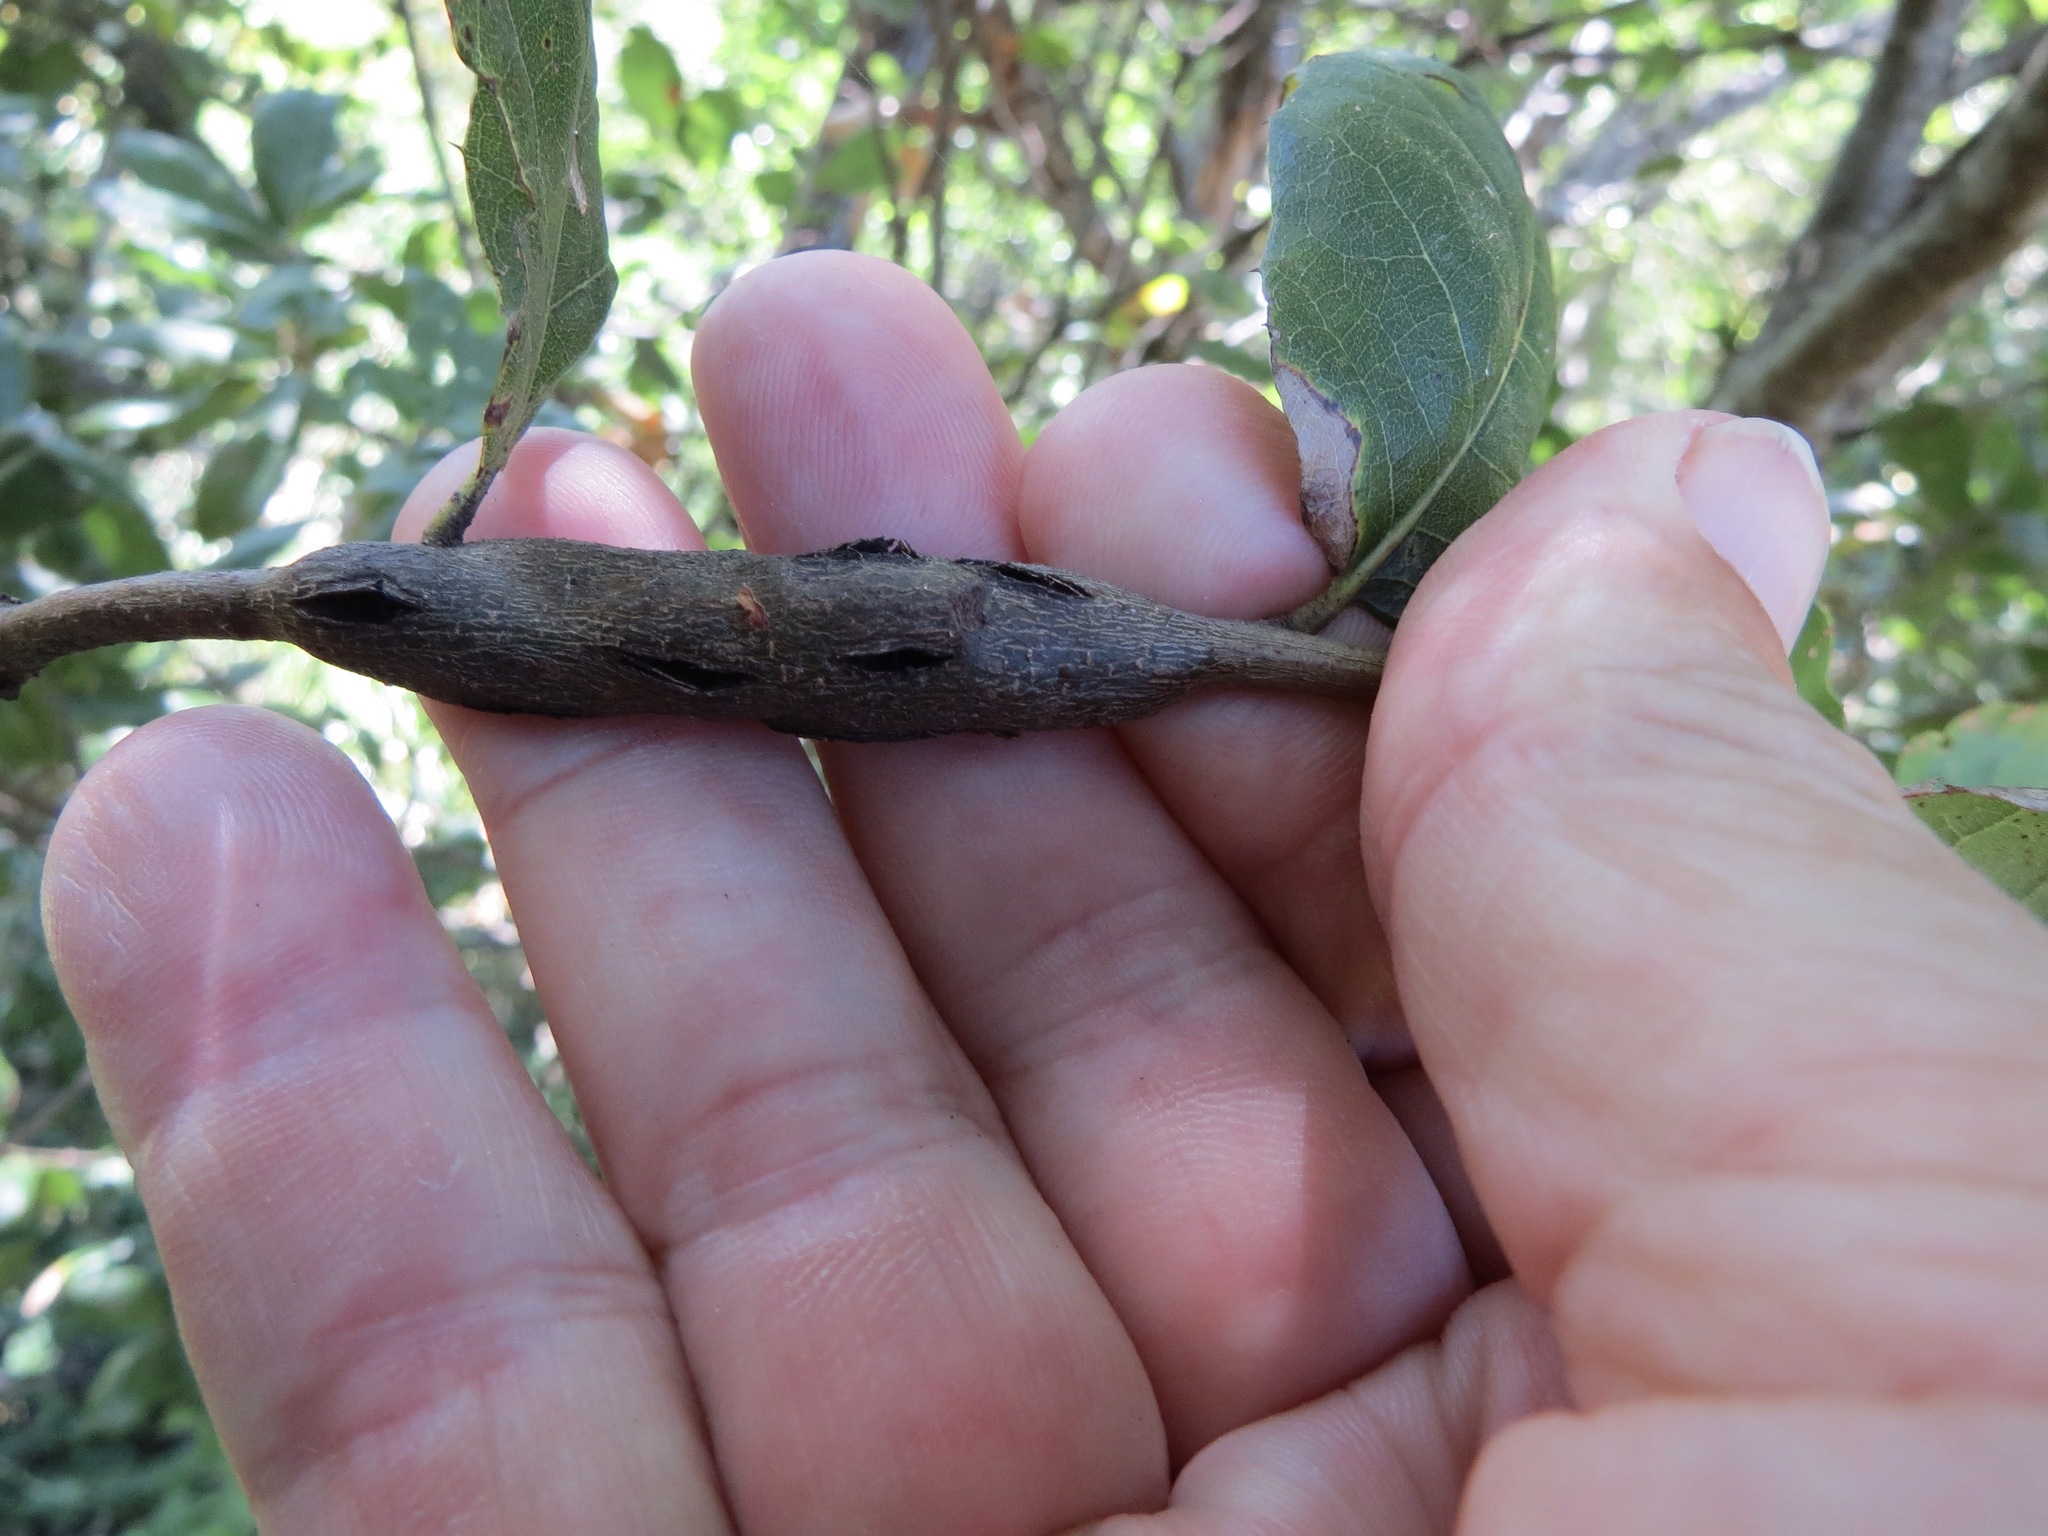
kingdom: Animalia
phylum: Arthropoda
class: Insecta
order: Hymenoptera
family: Cynipidae
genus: Callirhytis
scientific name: Callirhytis
